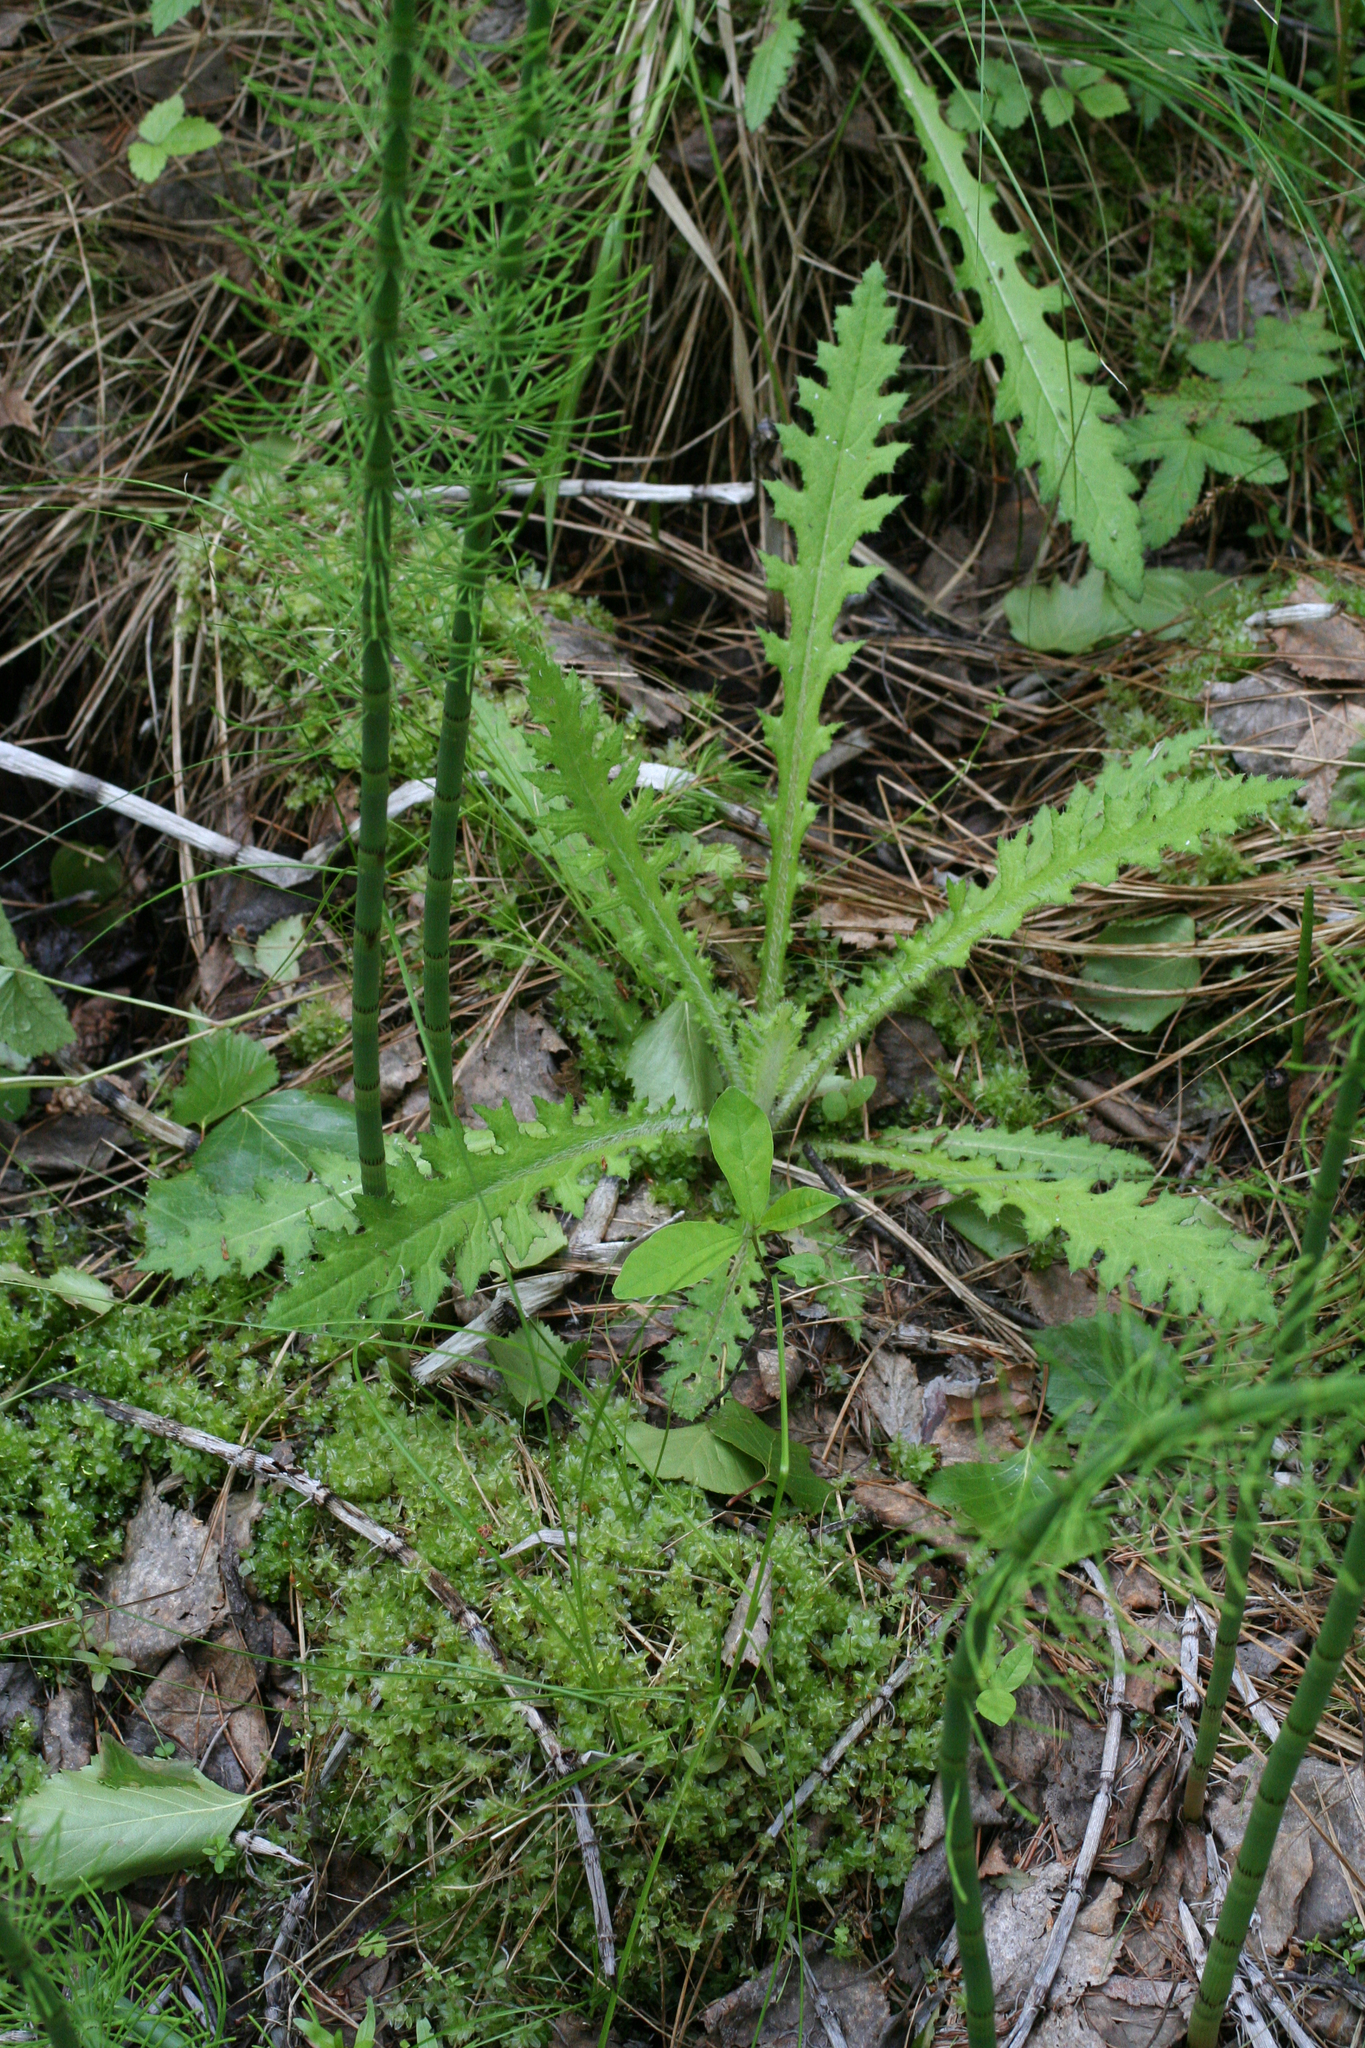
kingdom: Plantae
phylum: Tracheophyta
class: Magnoliopsida
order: Asterales
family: Asteraceae
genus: Cirsium
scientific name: Cirsium palustre
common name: Marsh thistle
